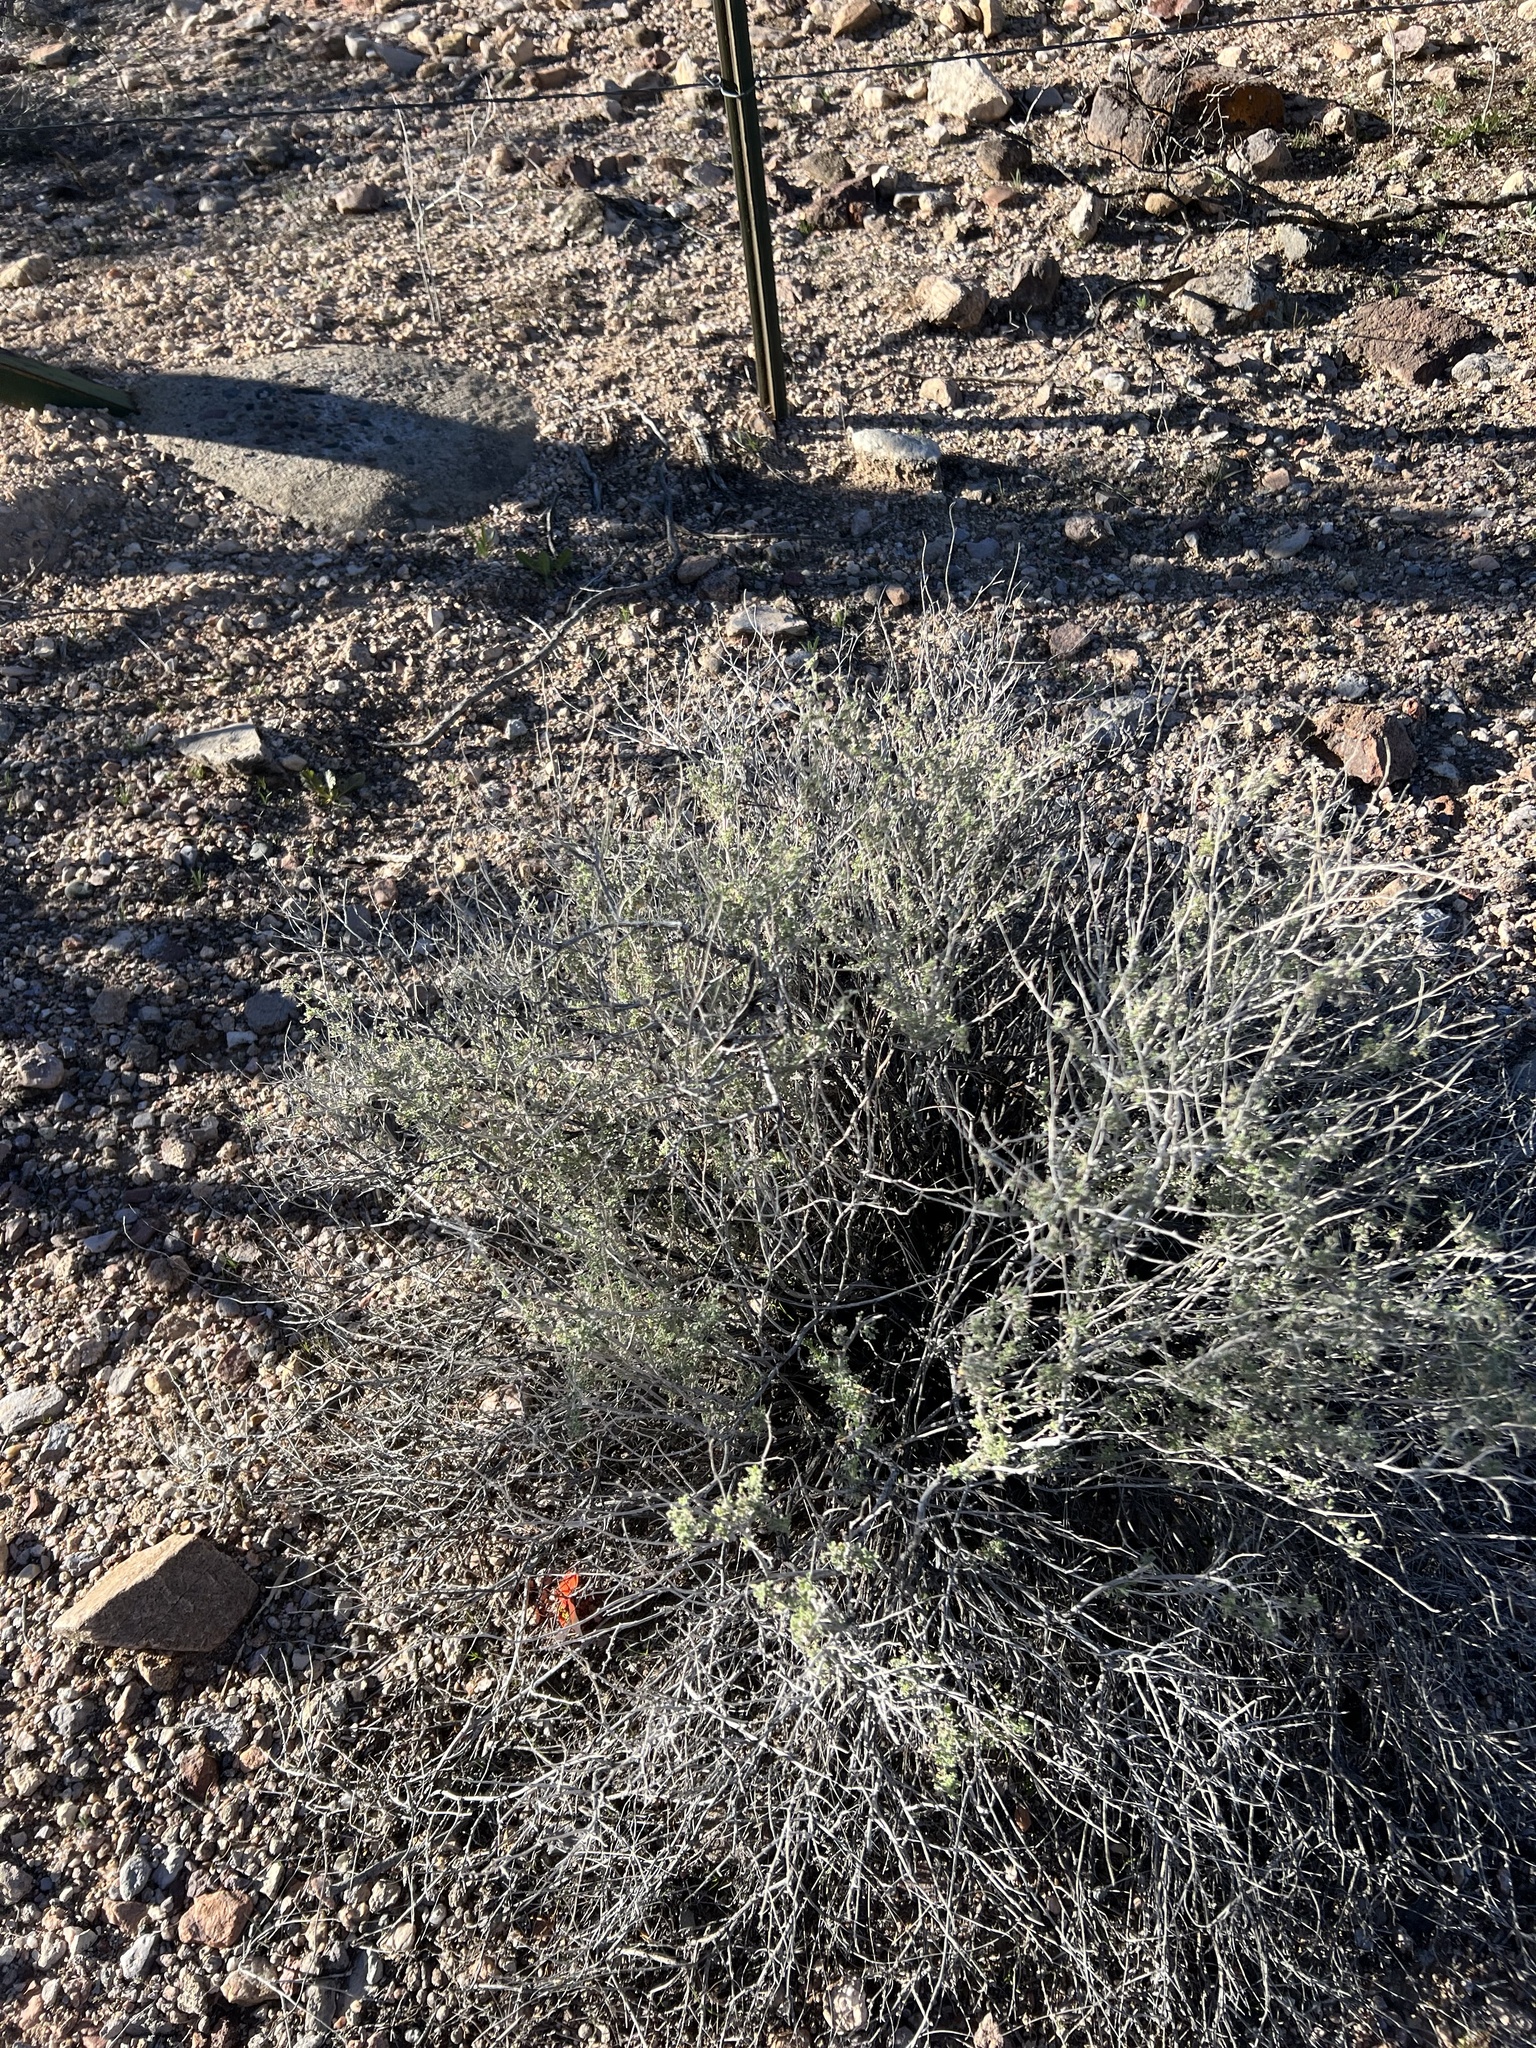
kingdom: Plantae
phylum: Tracheophyta
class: Magnoliopsida
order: Asterales
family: Asteraceae
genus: Ambrosia
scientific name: Ambrosia dumosa
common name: Bur-sage
